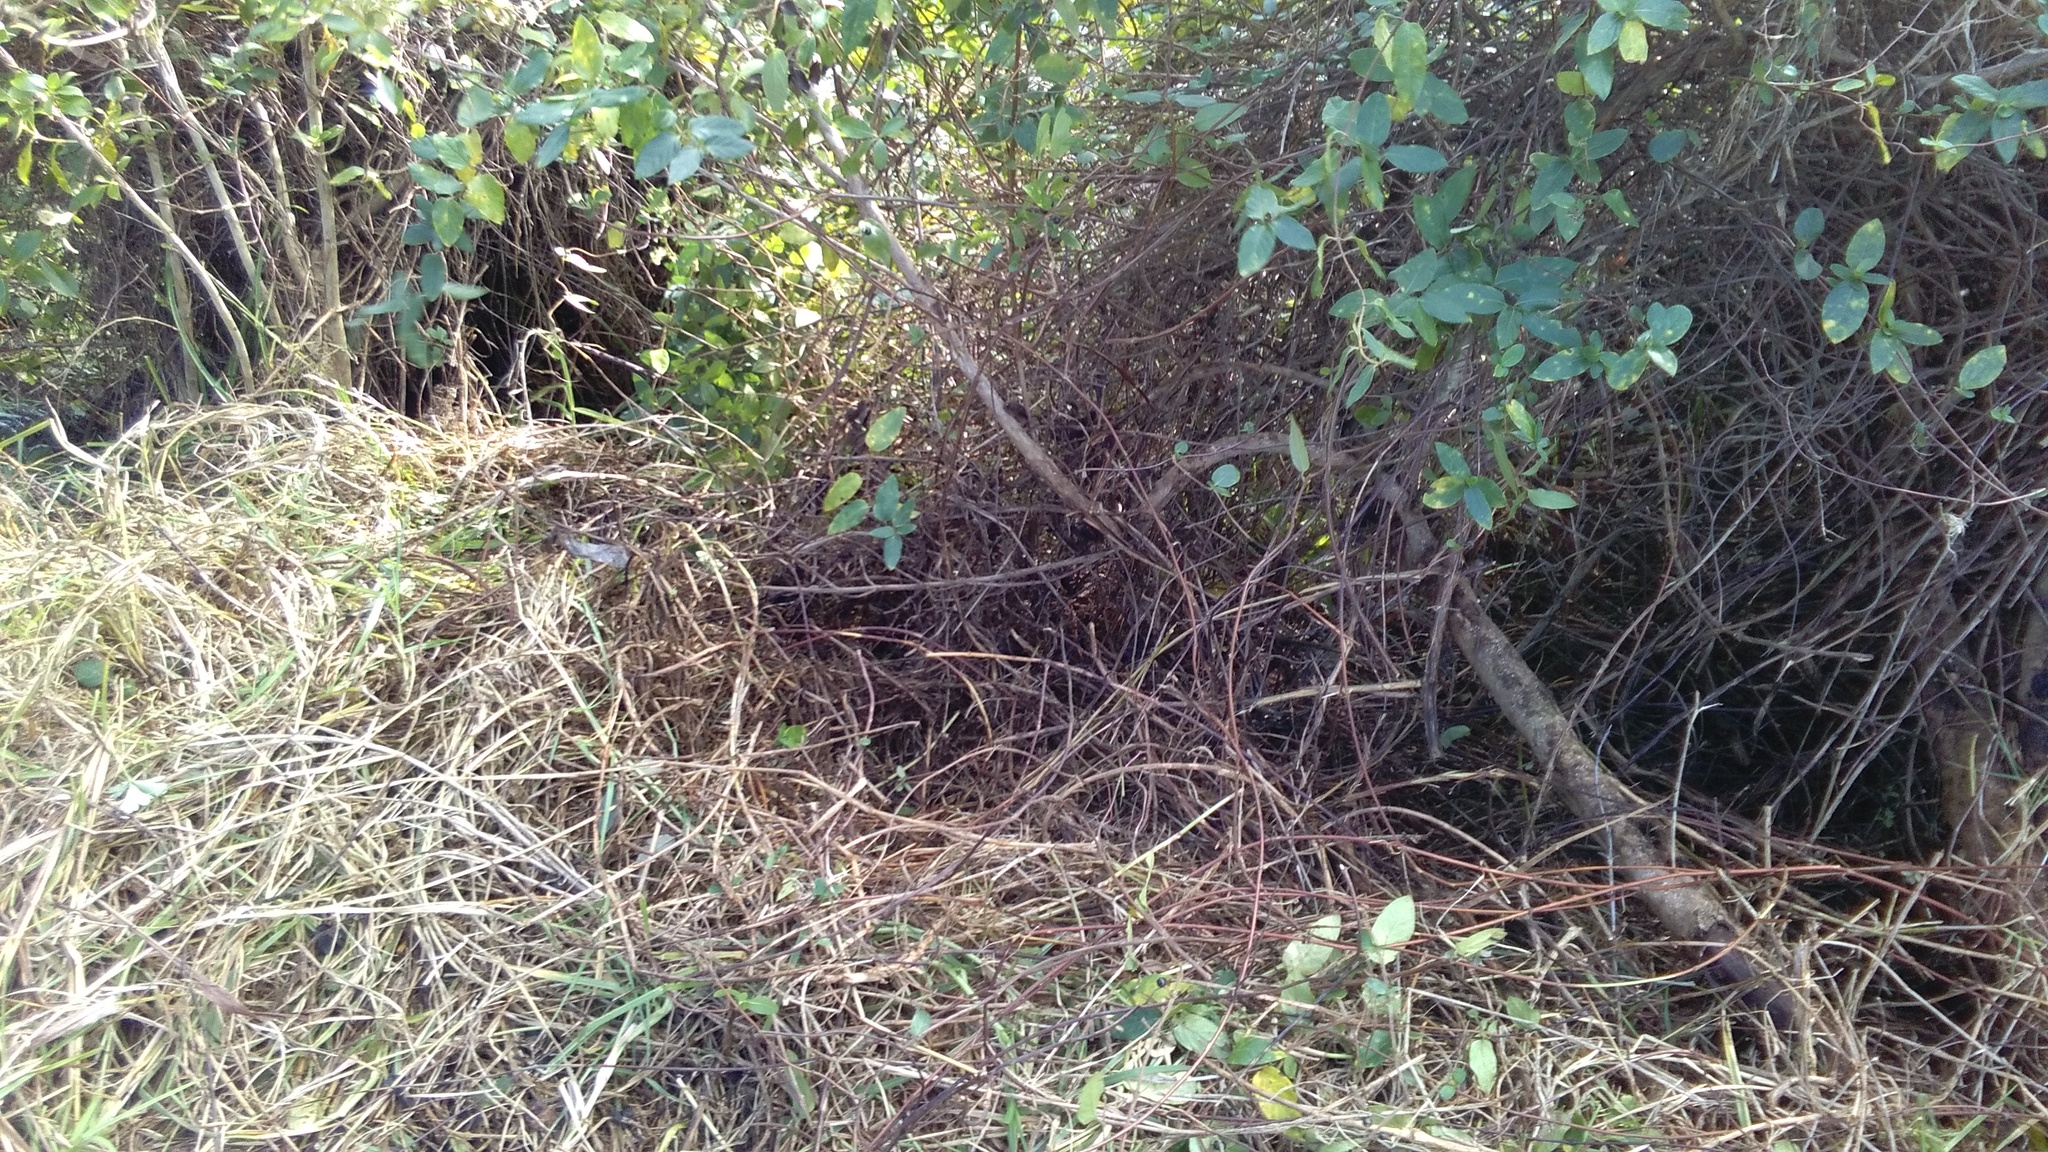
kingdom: Plantae
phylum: Tracheophyta
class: Magnoliopsida
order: Gentianales
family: Rubiaceae
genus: Coprosma
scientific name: Coprosma robusta
